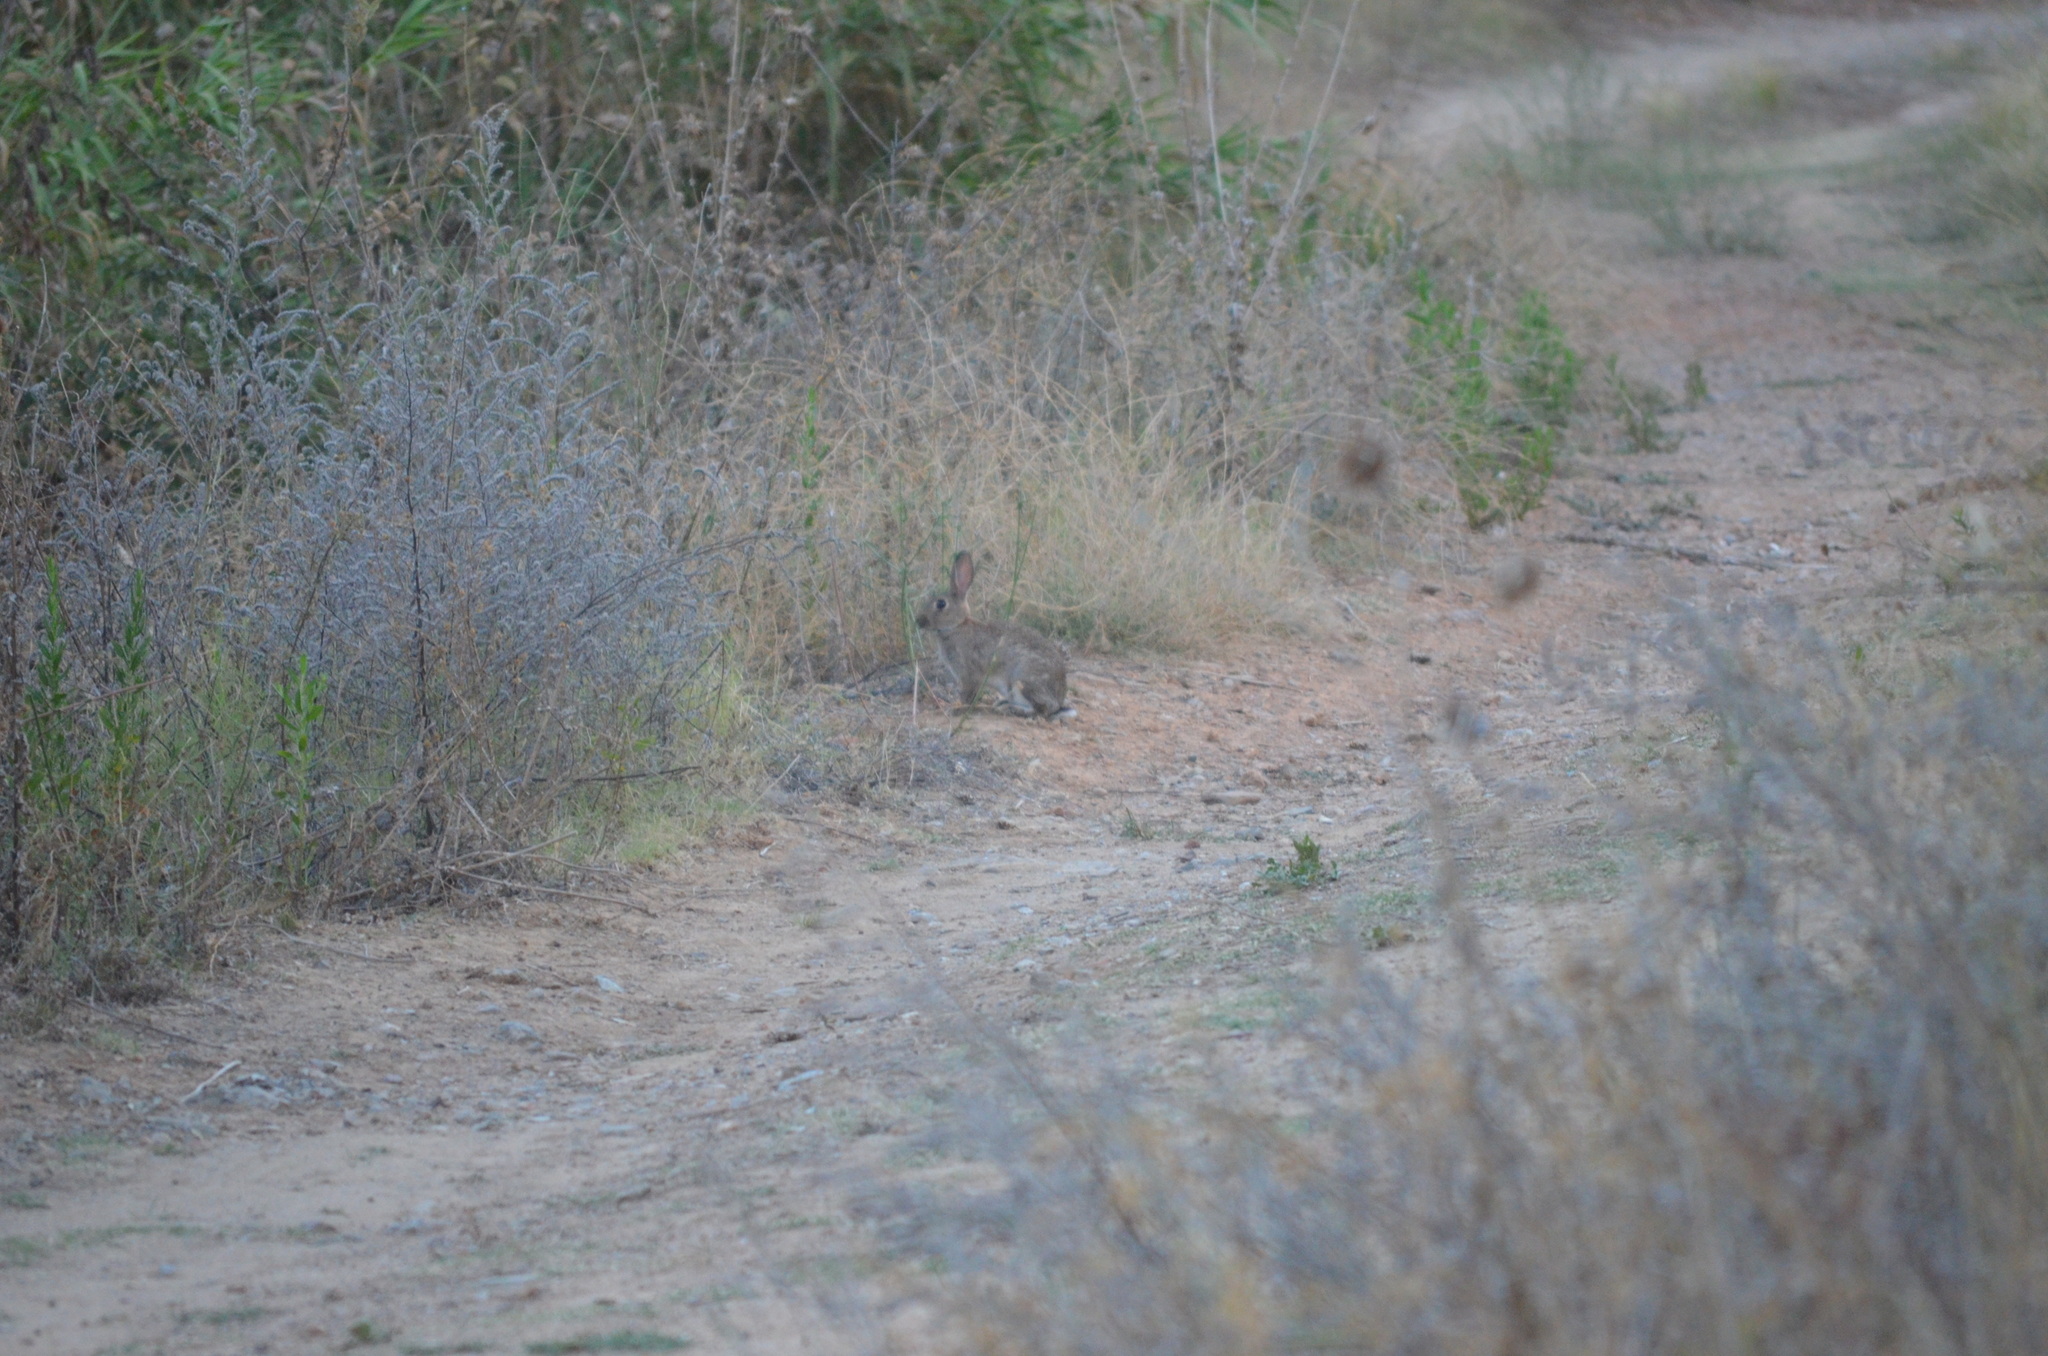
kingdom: Animalia
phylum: Chordata
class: Mammalia
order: Lagomorpha
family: Leporidae
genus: Oryctolagus
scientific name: Oryctolagus cuniculus
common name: European rabbit
